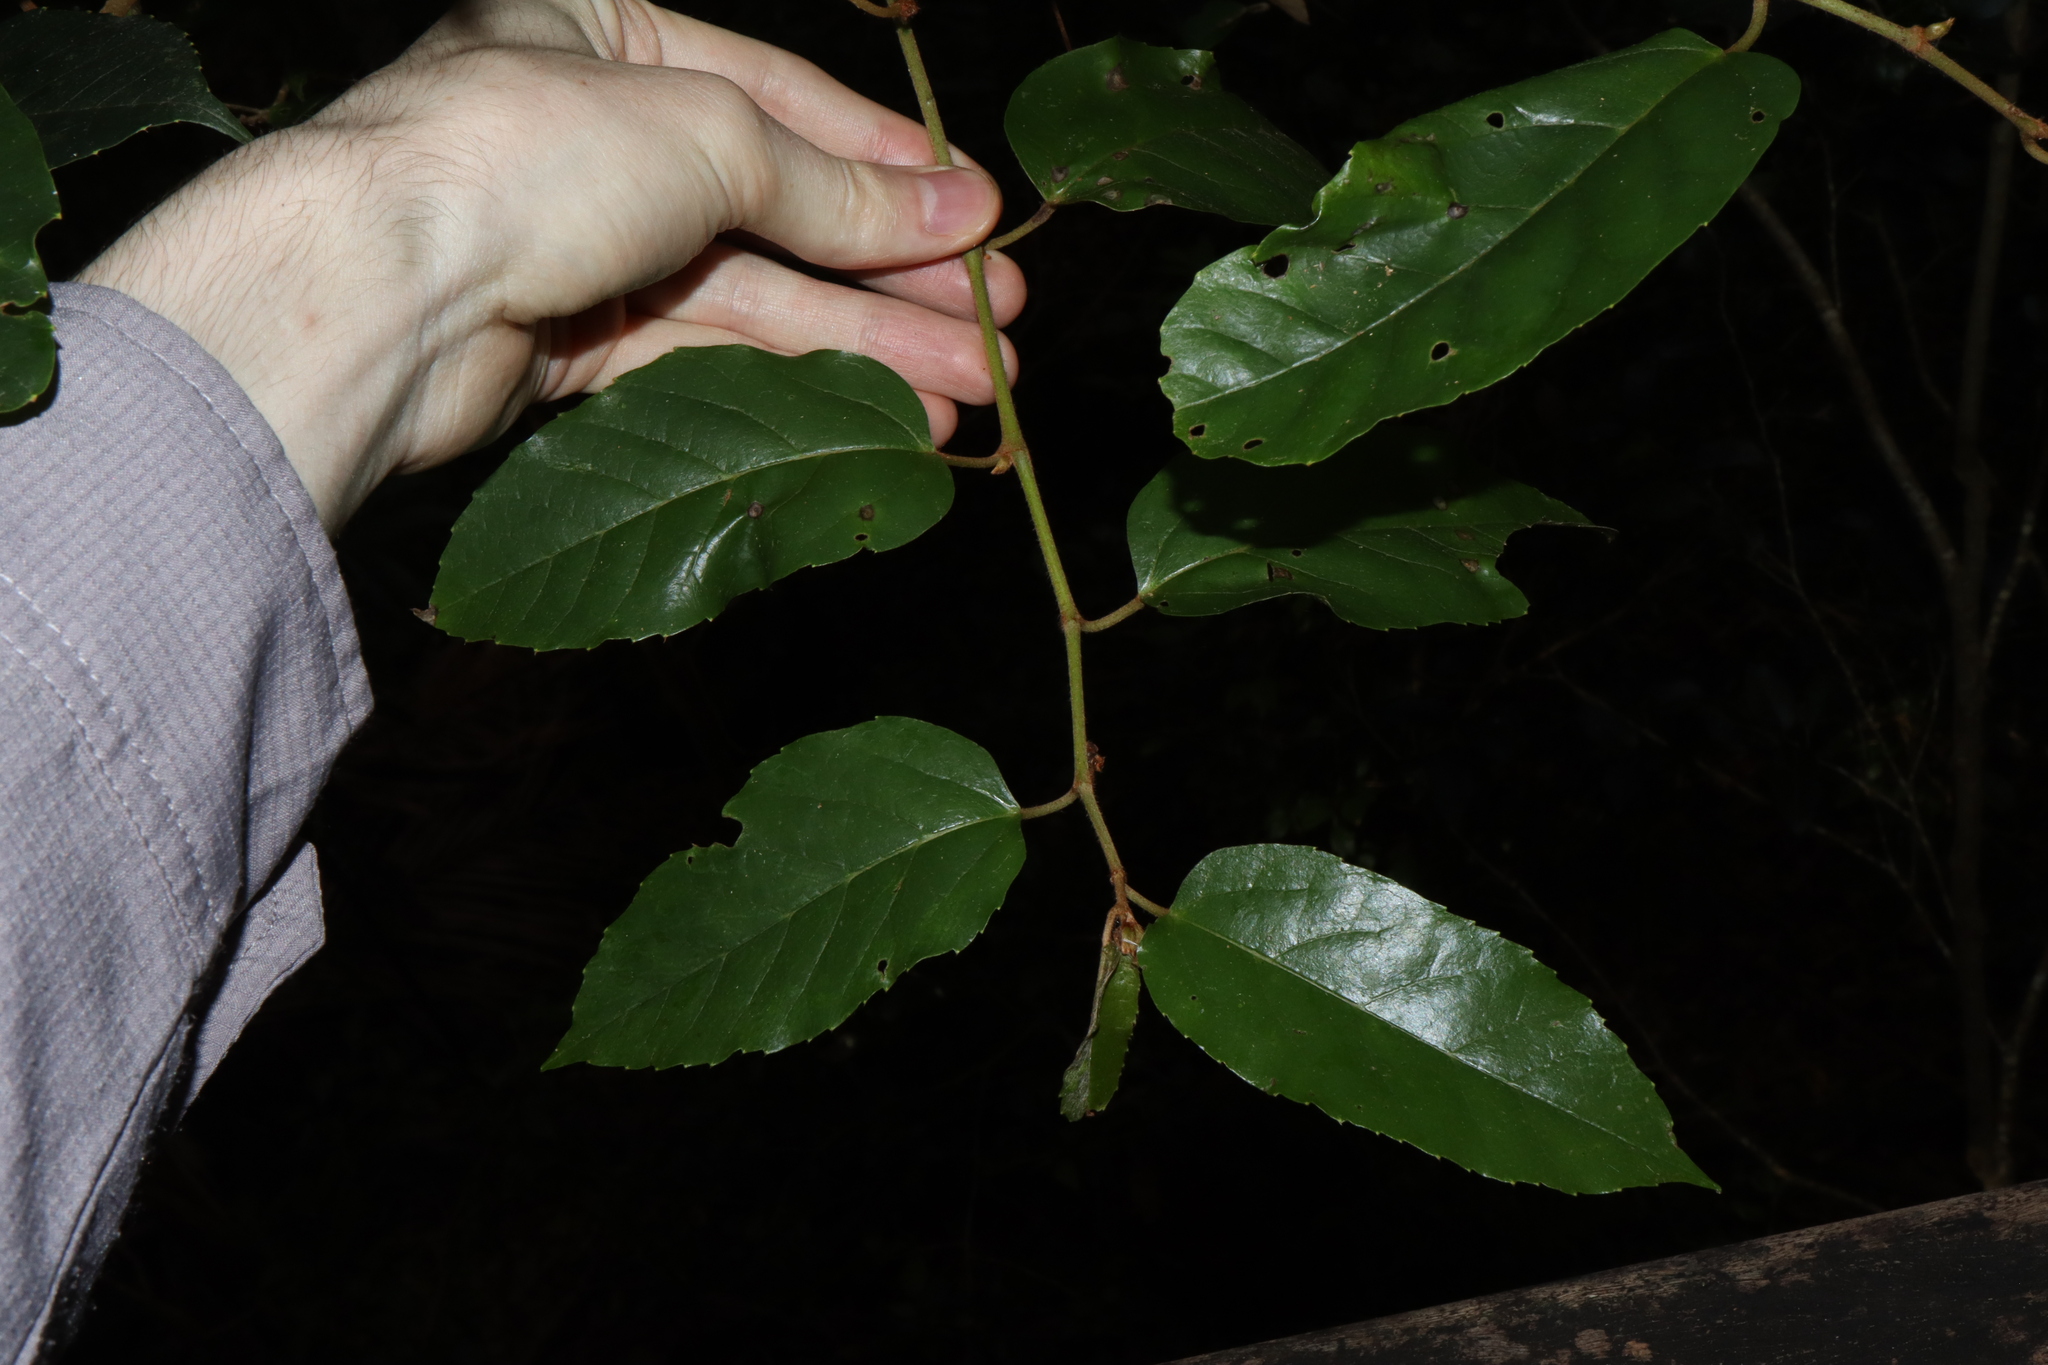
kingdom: Plantae
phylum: Tracheophyta
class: Magnoliopsida
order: Vitales
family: Vitaceae
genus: Cissus
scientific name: Cissus antarctica
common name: Kangaroo vine
